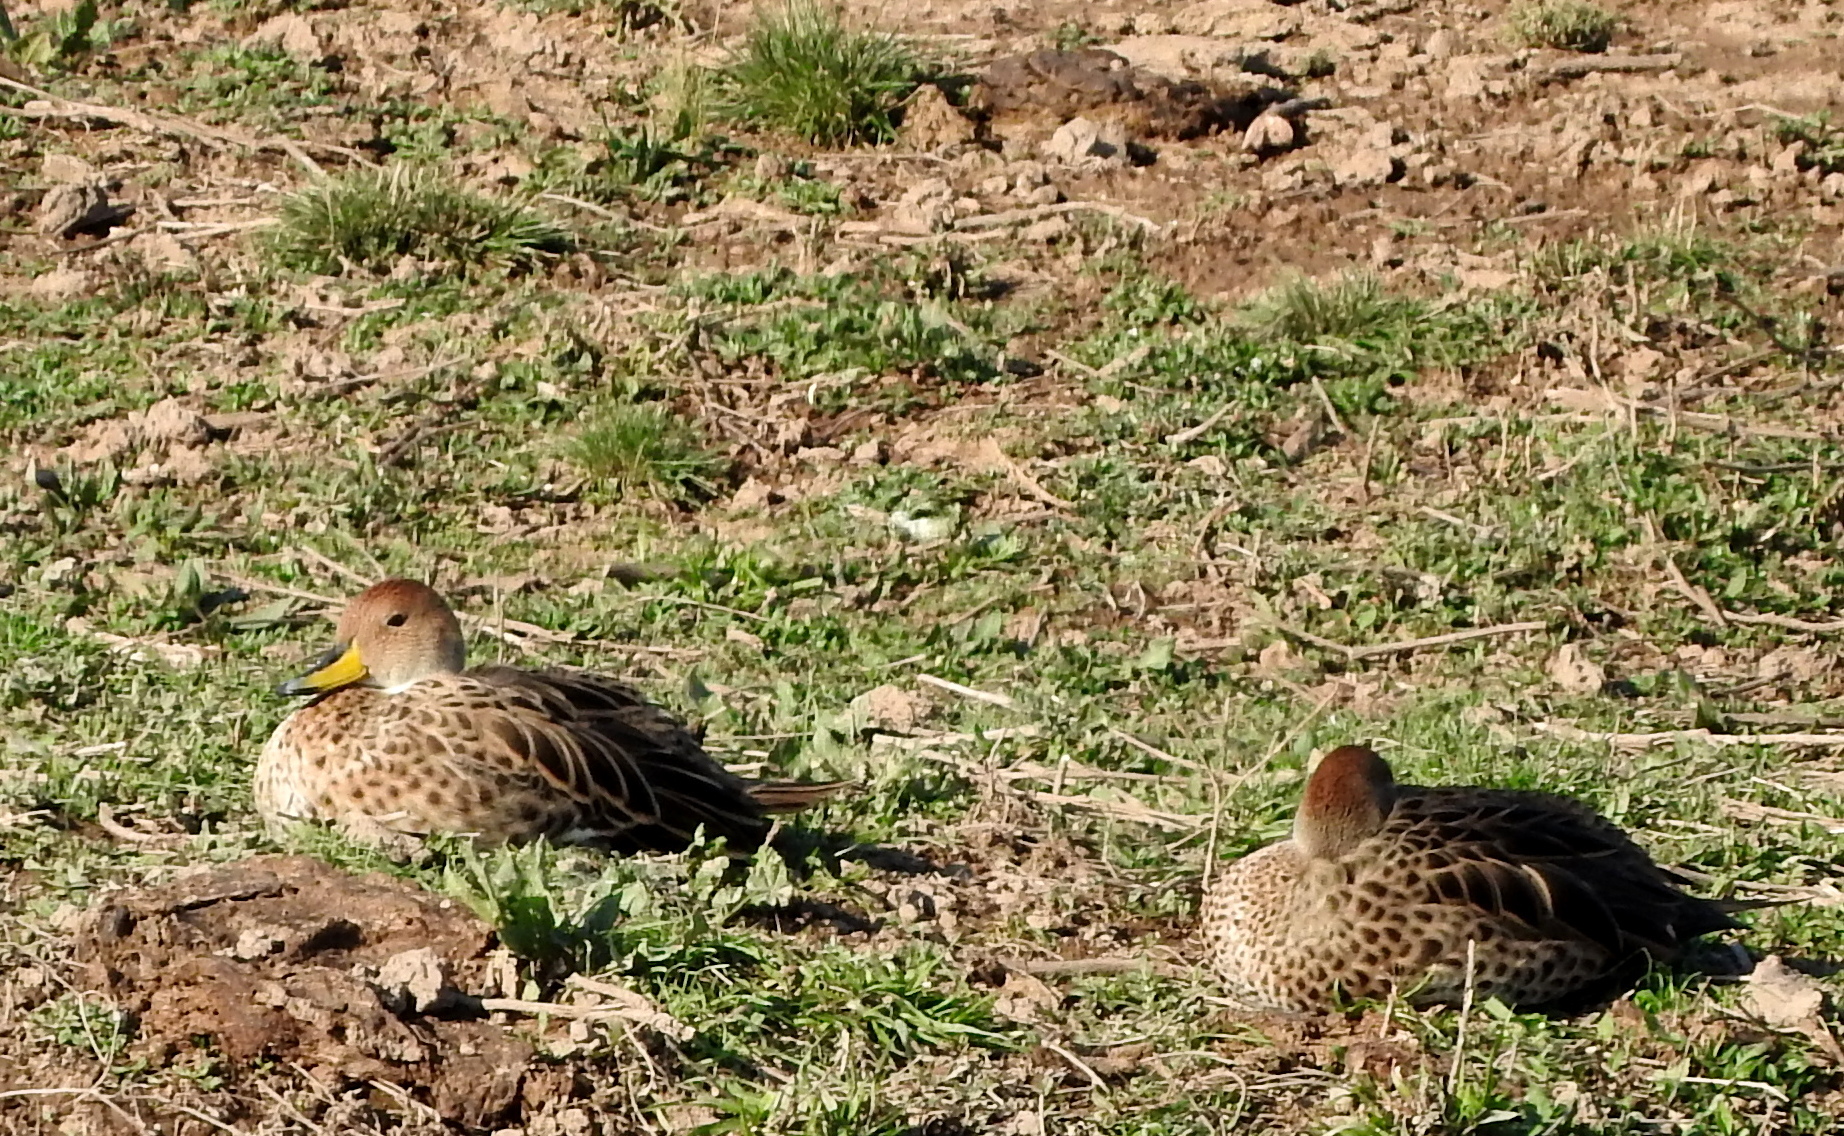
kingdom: Animalia
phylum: Chordata
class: Aves
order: Anseriformes
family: Anatidae
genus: Anas
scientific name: Anas georgica
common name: Yellow-billed pintail
